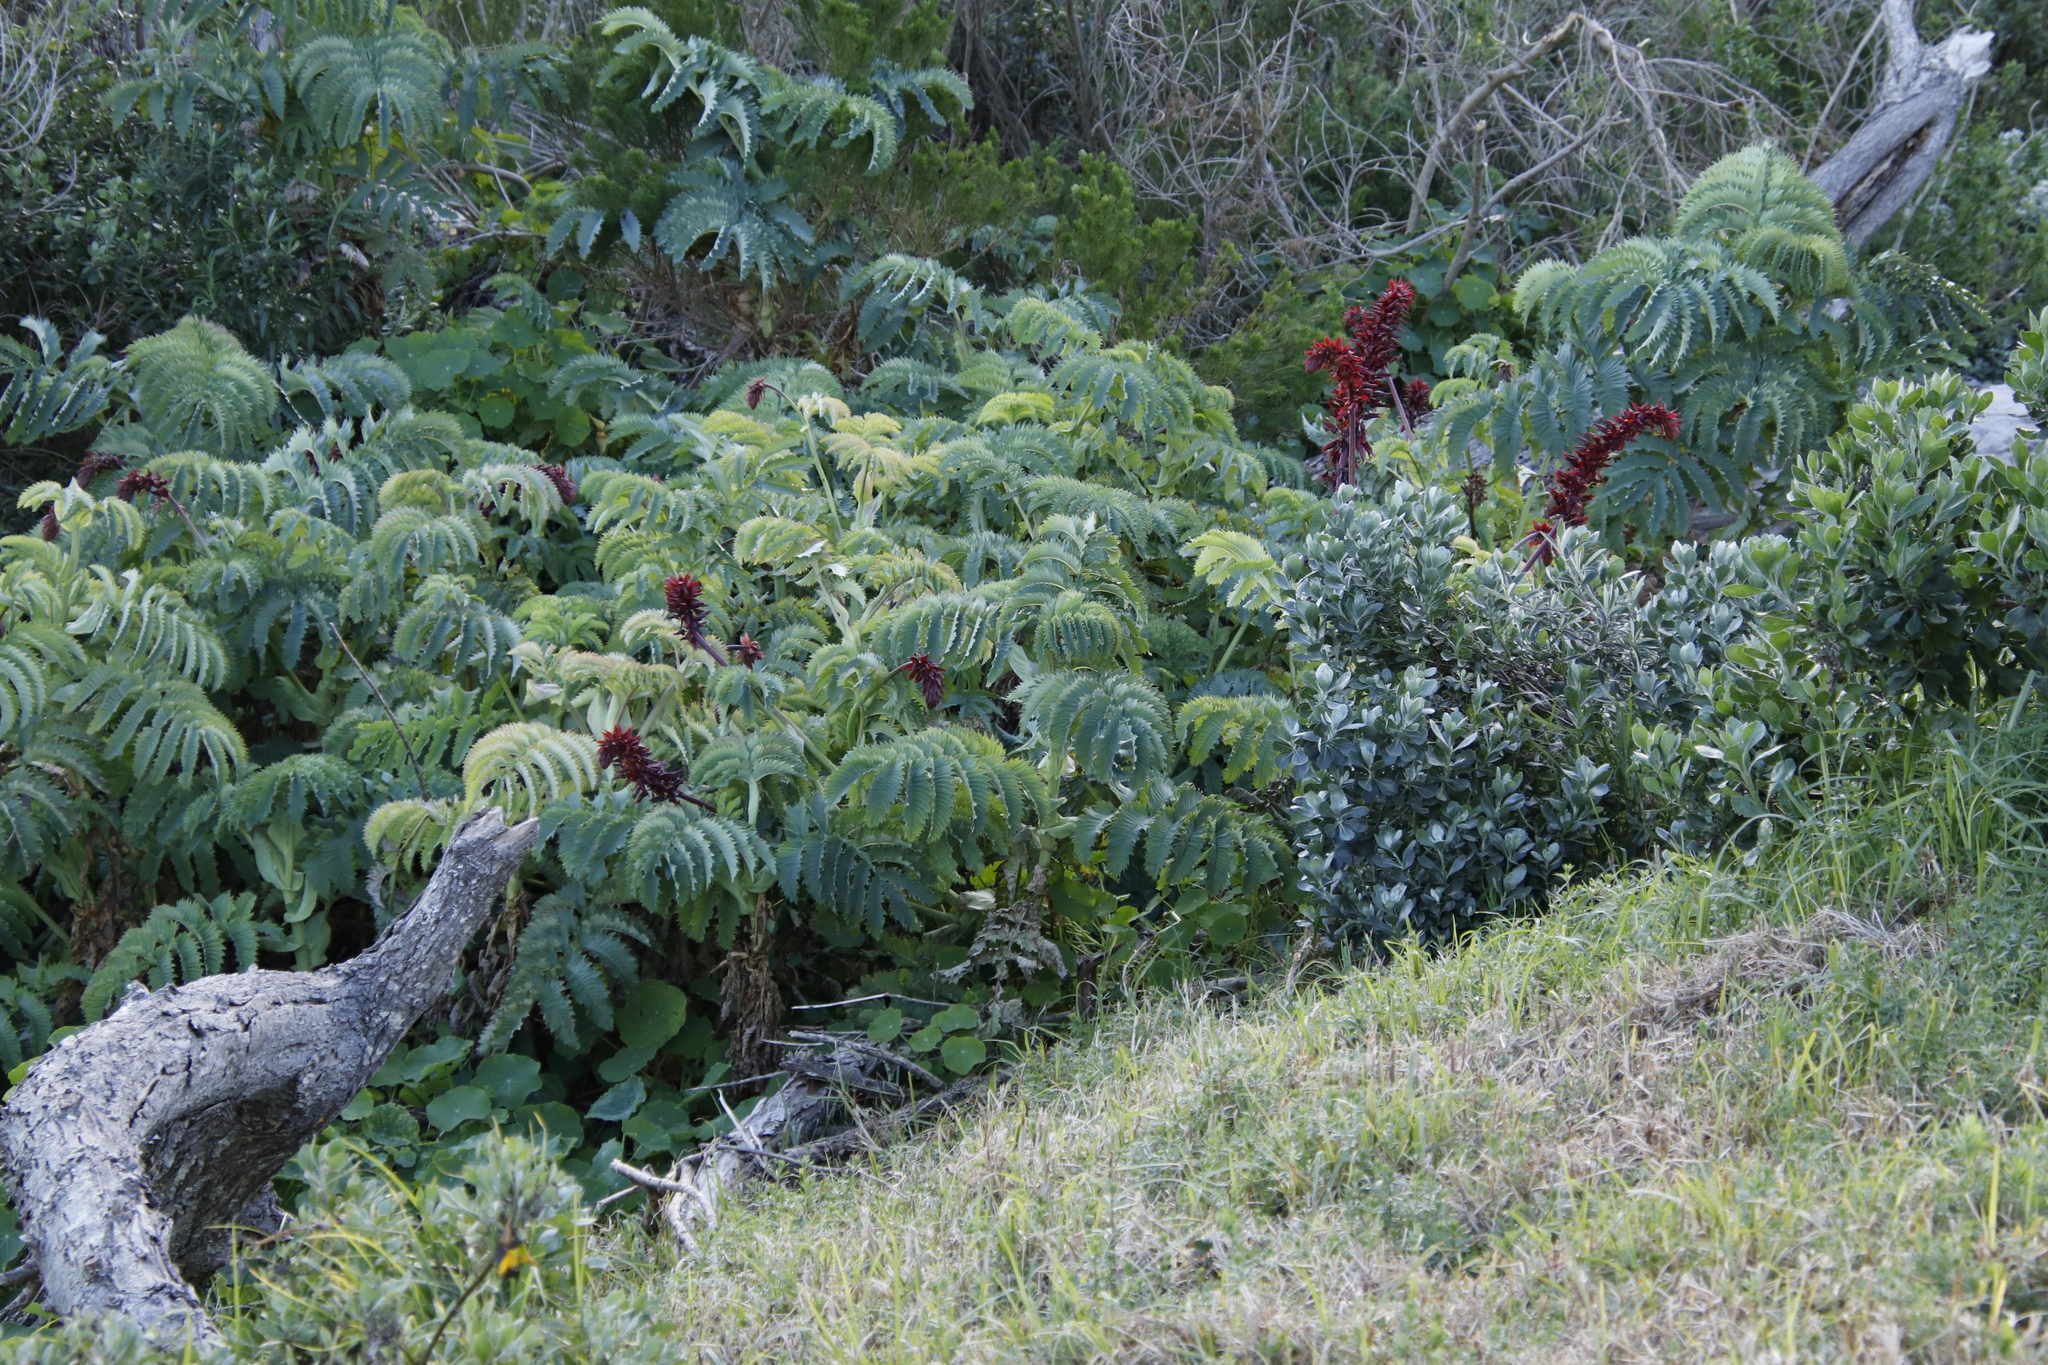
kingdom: Plantae
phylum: Tracheophyta
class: Magnoliopsida
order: Geraniales
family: Melianthaceae
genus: Melianthus
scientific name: Melianthus major
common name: Honey-flower
